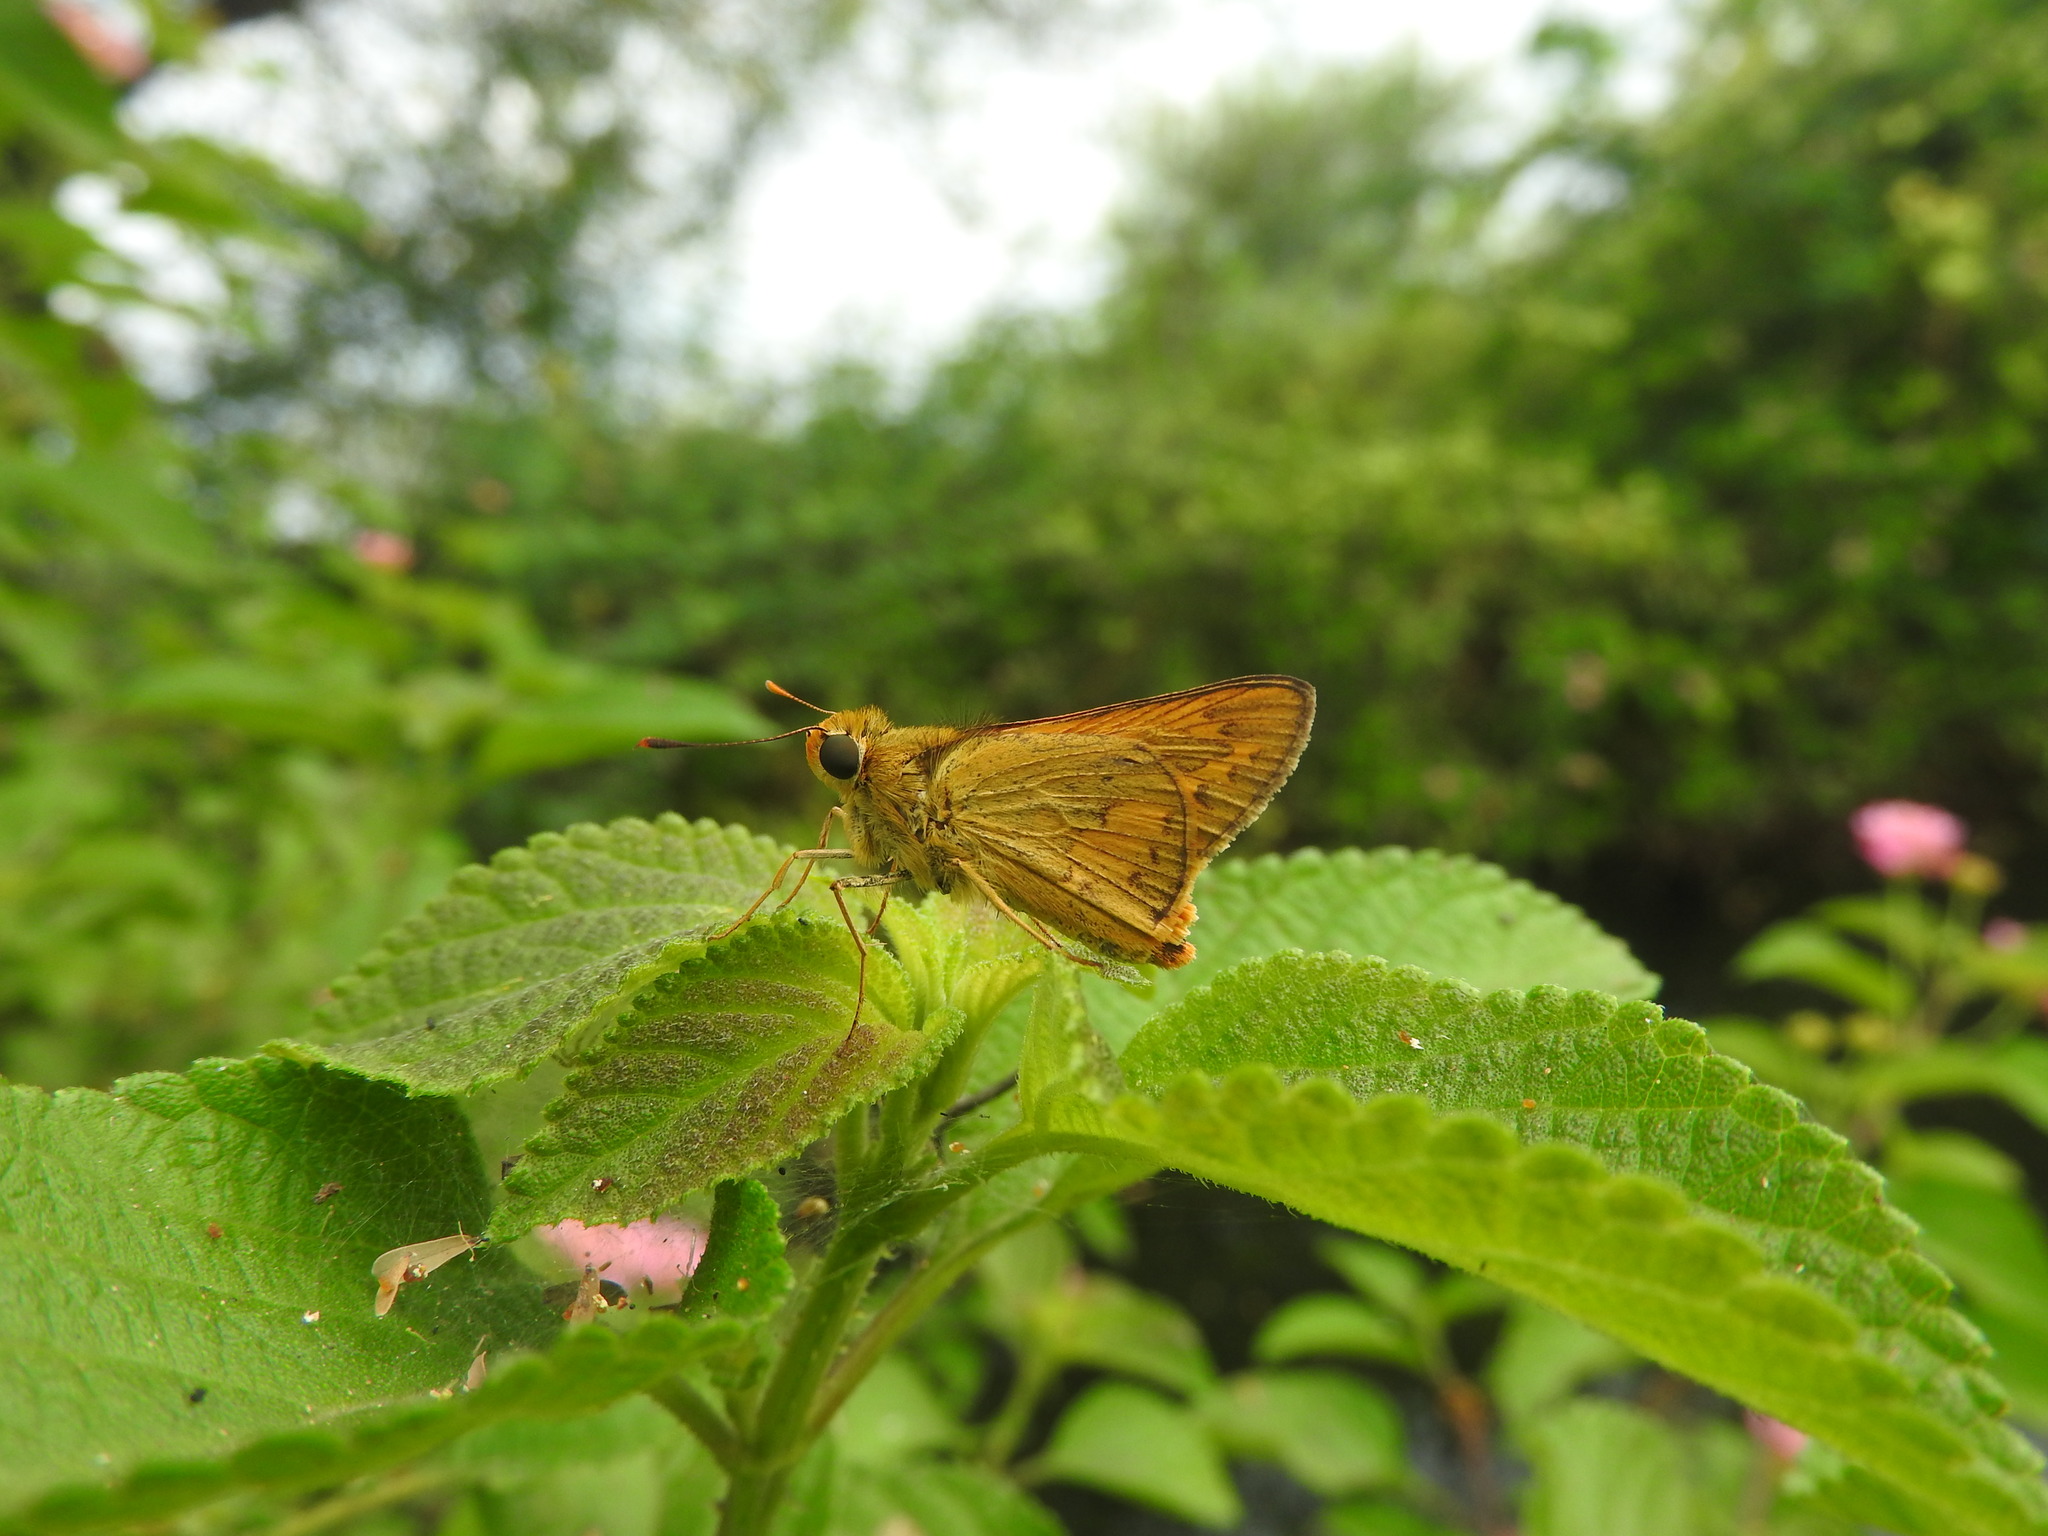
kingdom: Animalia
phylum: Arthropoda
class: Insecta
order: Lepidoptera
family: Hesperiidae
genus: Telicota
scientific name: Telicota colon
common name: Pale palm dart
